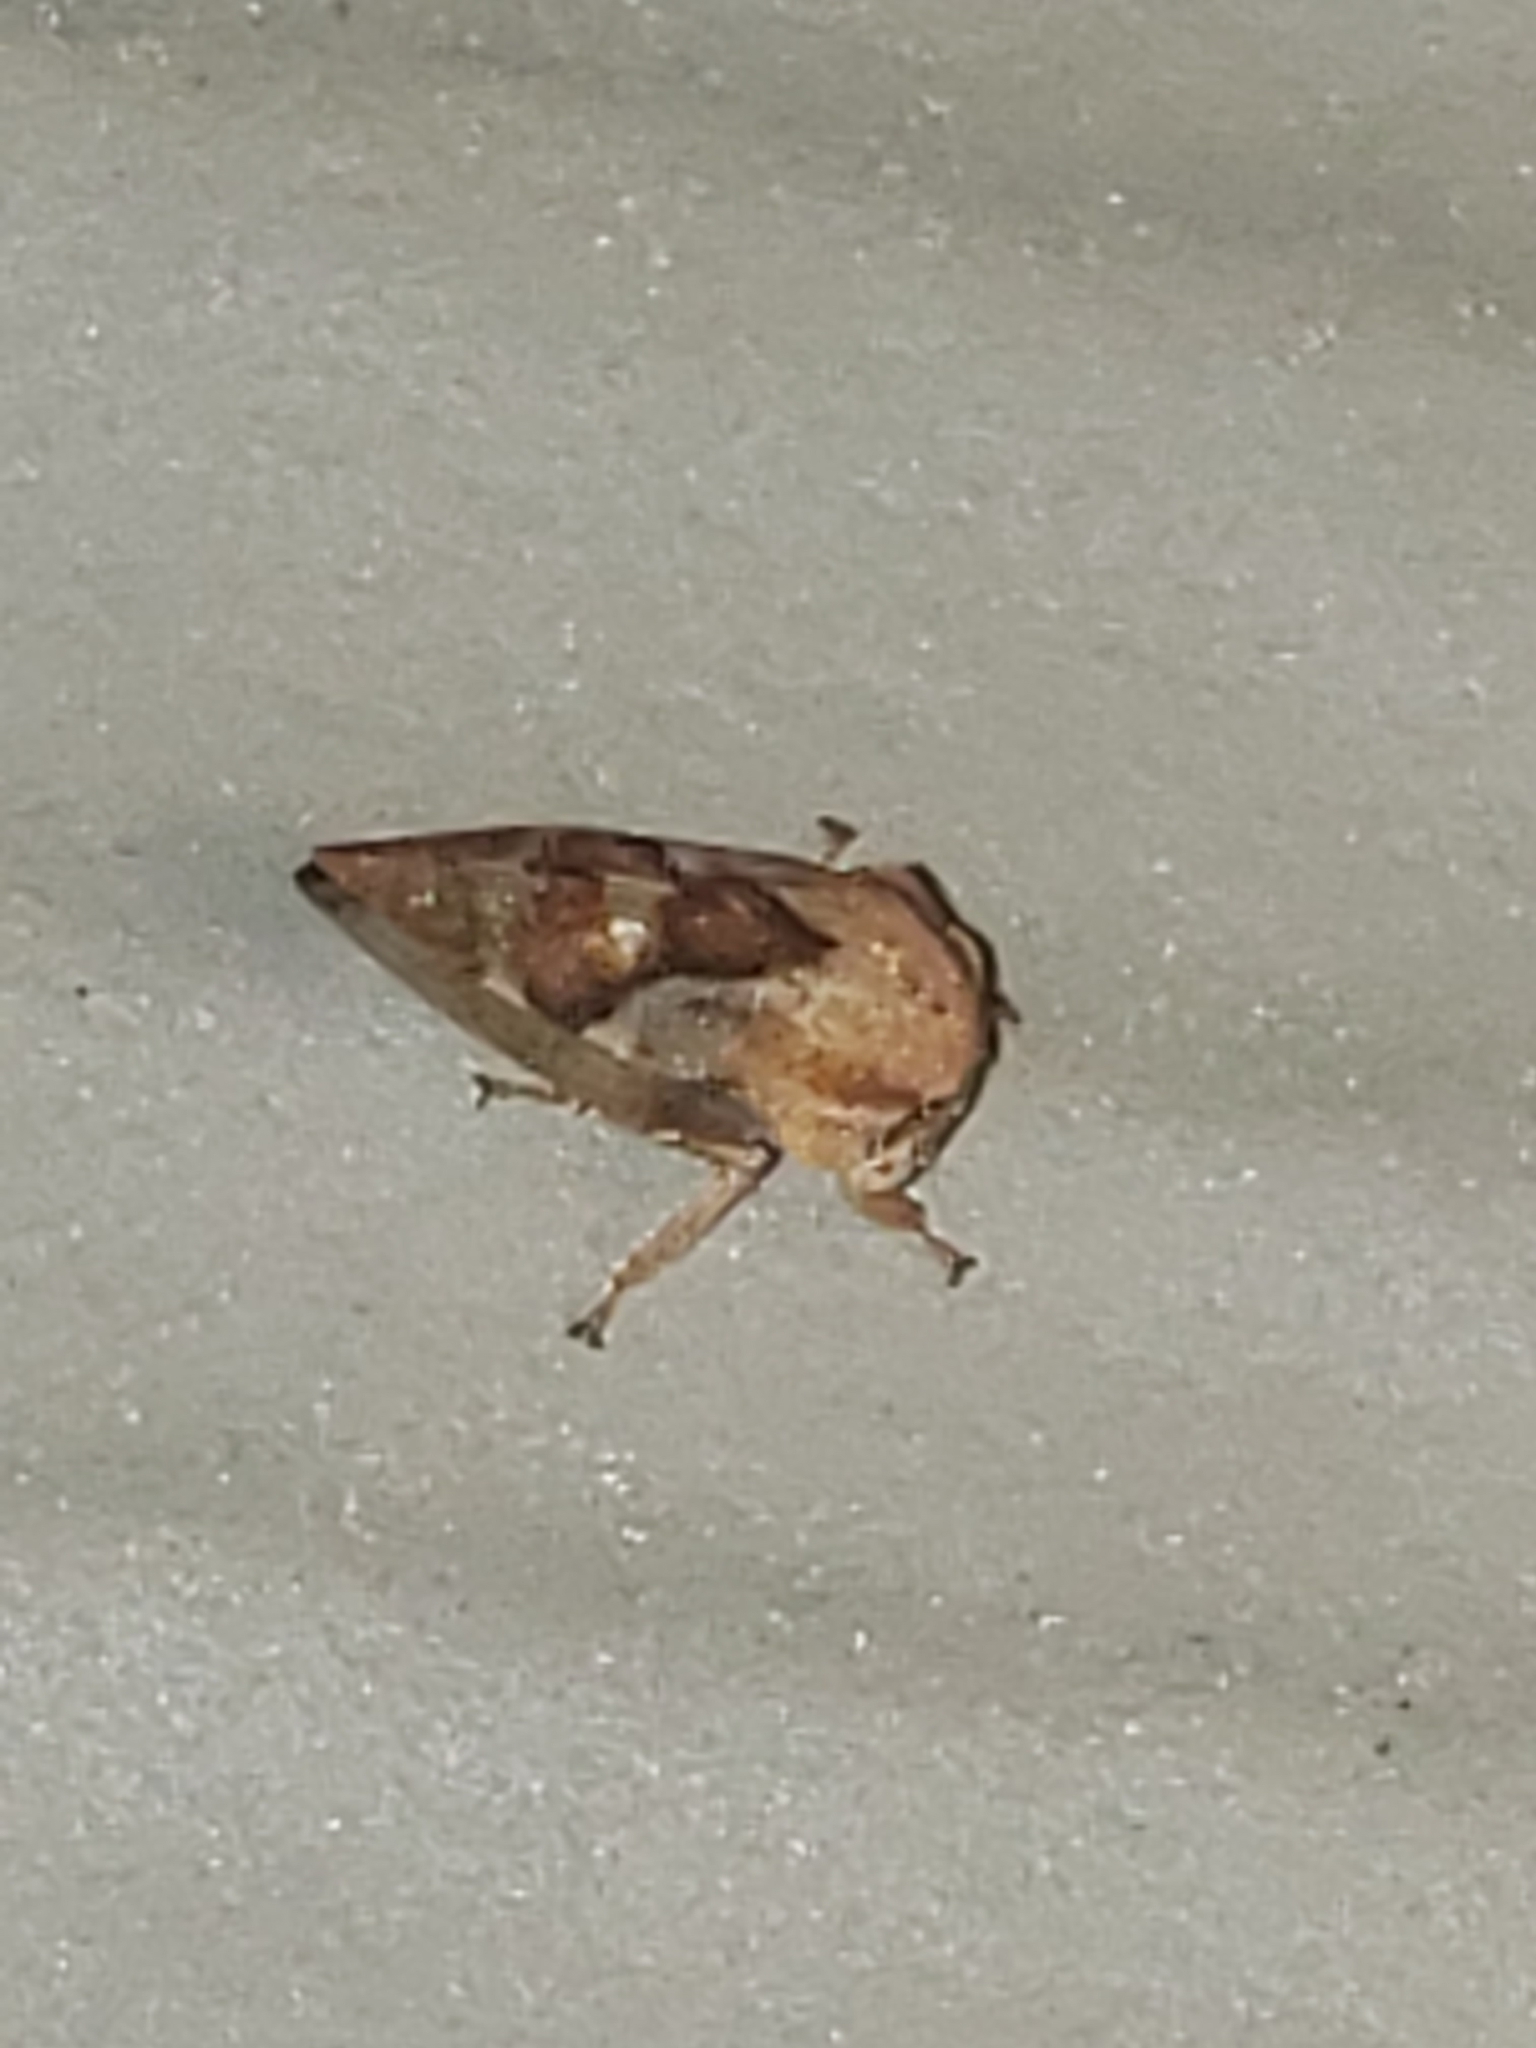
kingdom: Animalia
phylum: Arthropoda
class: Insecta
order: Hemiptera
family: Membracidae
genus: Cyrtolobus
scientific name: Cyrtolobus rufulus
